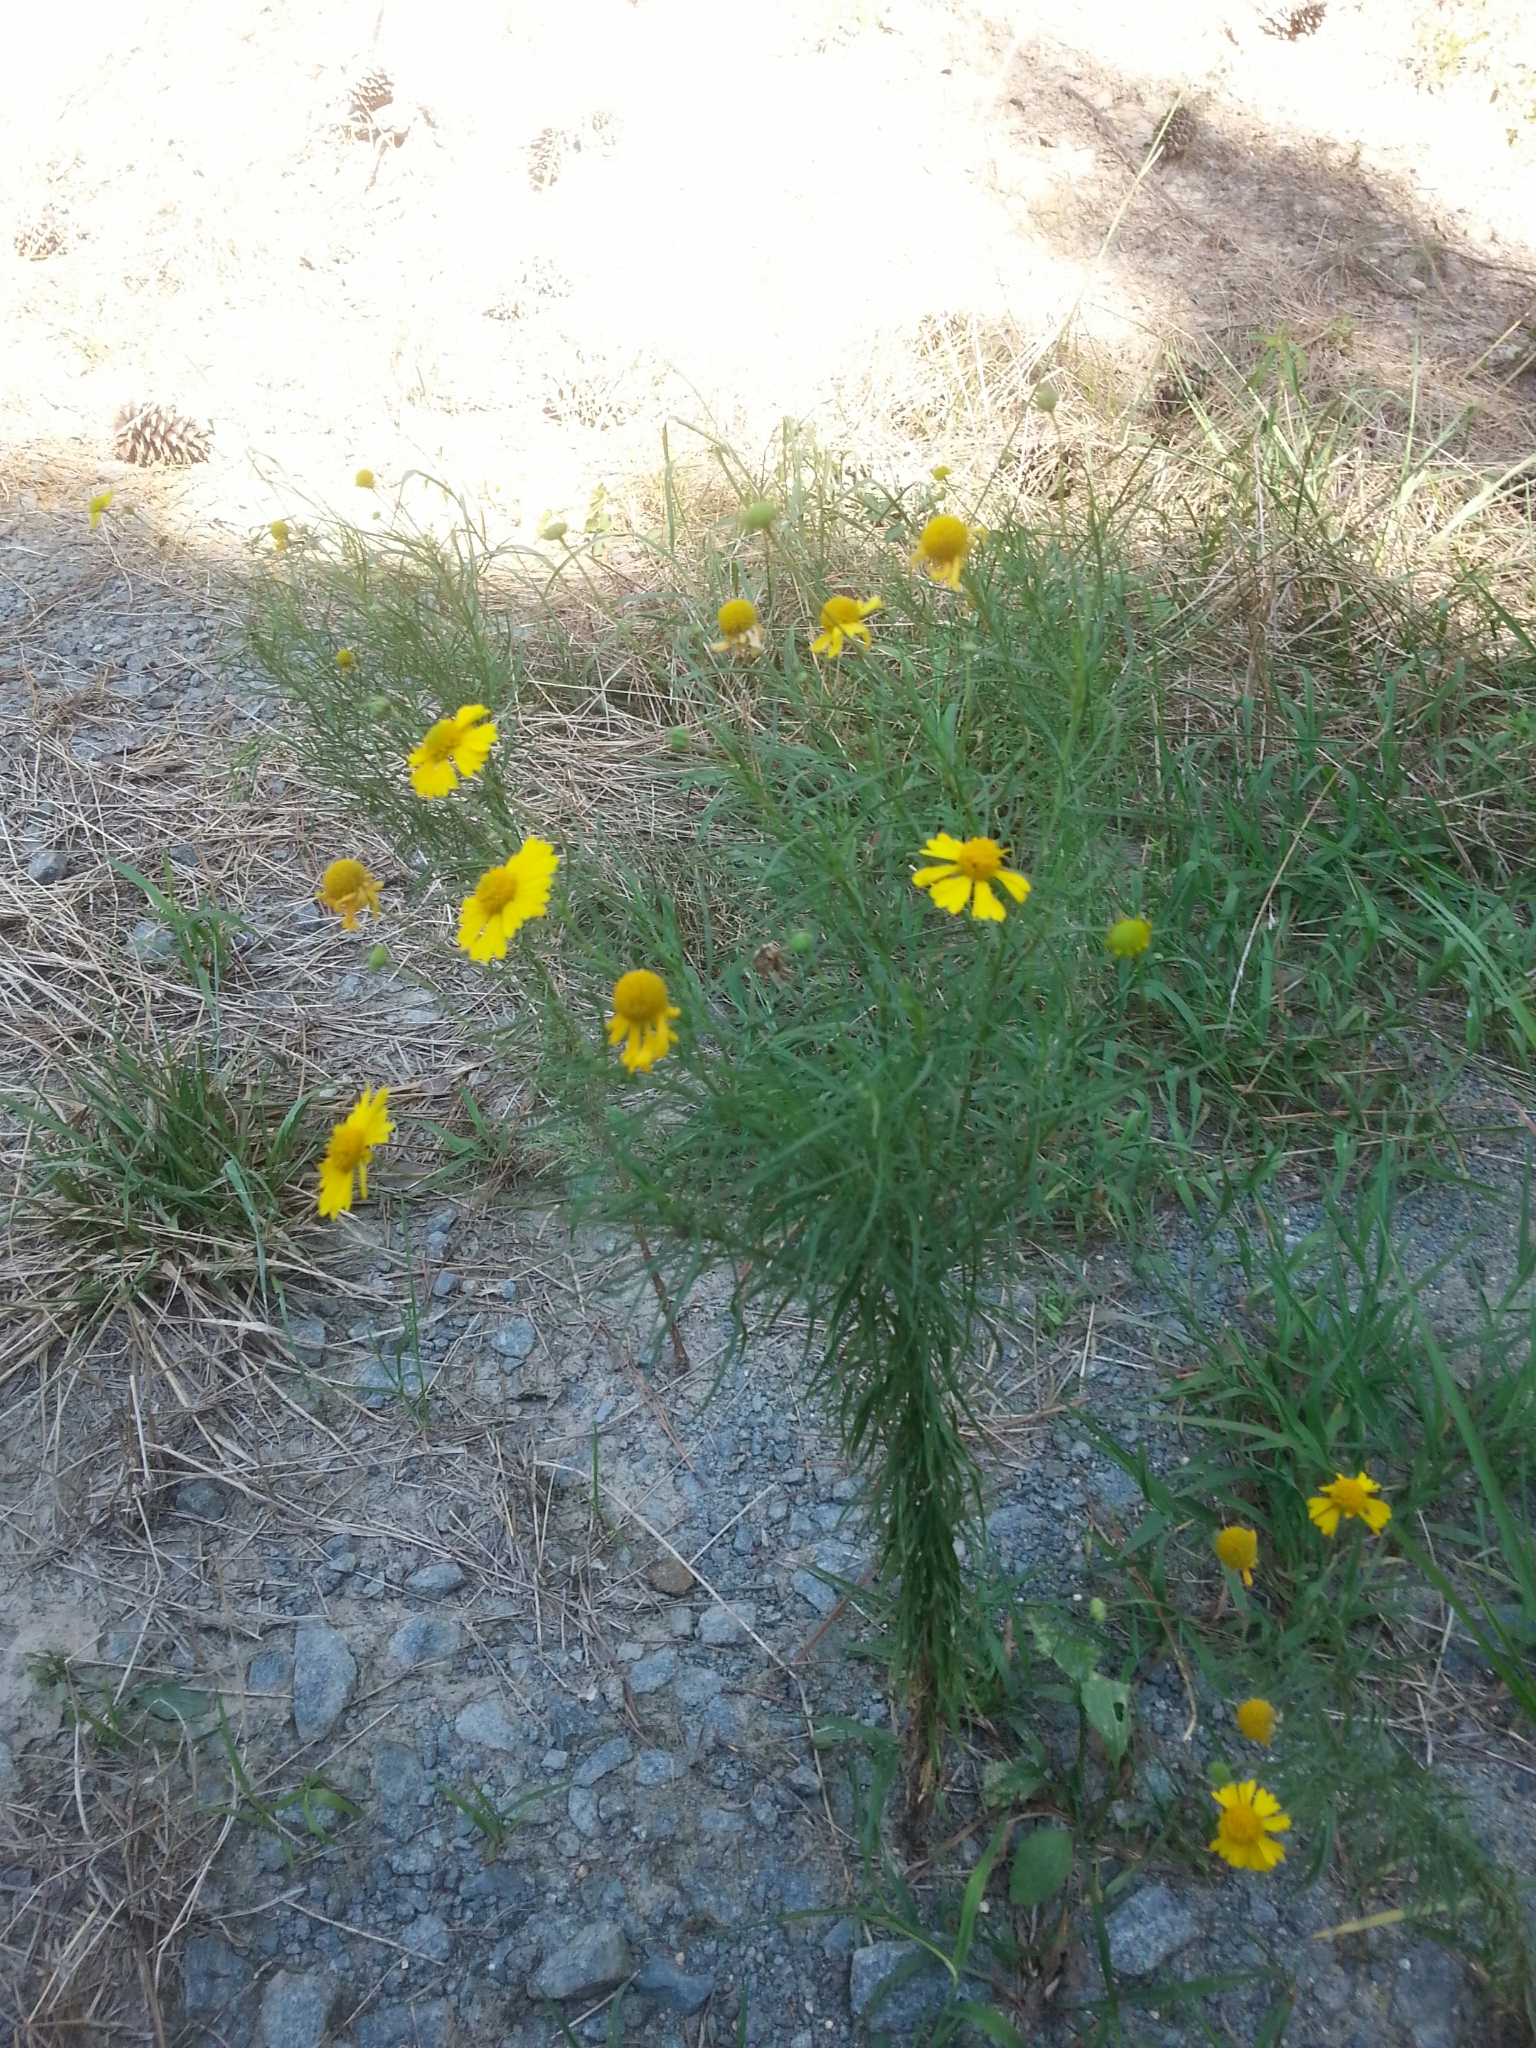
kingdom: Plantae
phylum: Tracheophyta
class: Magnoliopsida
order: Asterales
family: Asteraceae
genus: Helenium
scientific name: Helenium amarum
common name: Bitter sneezeweed
